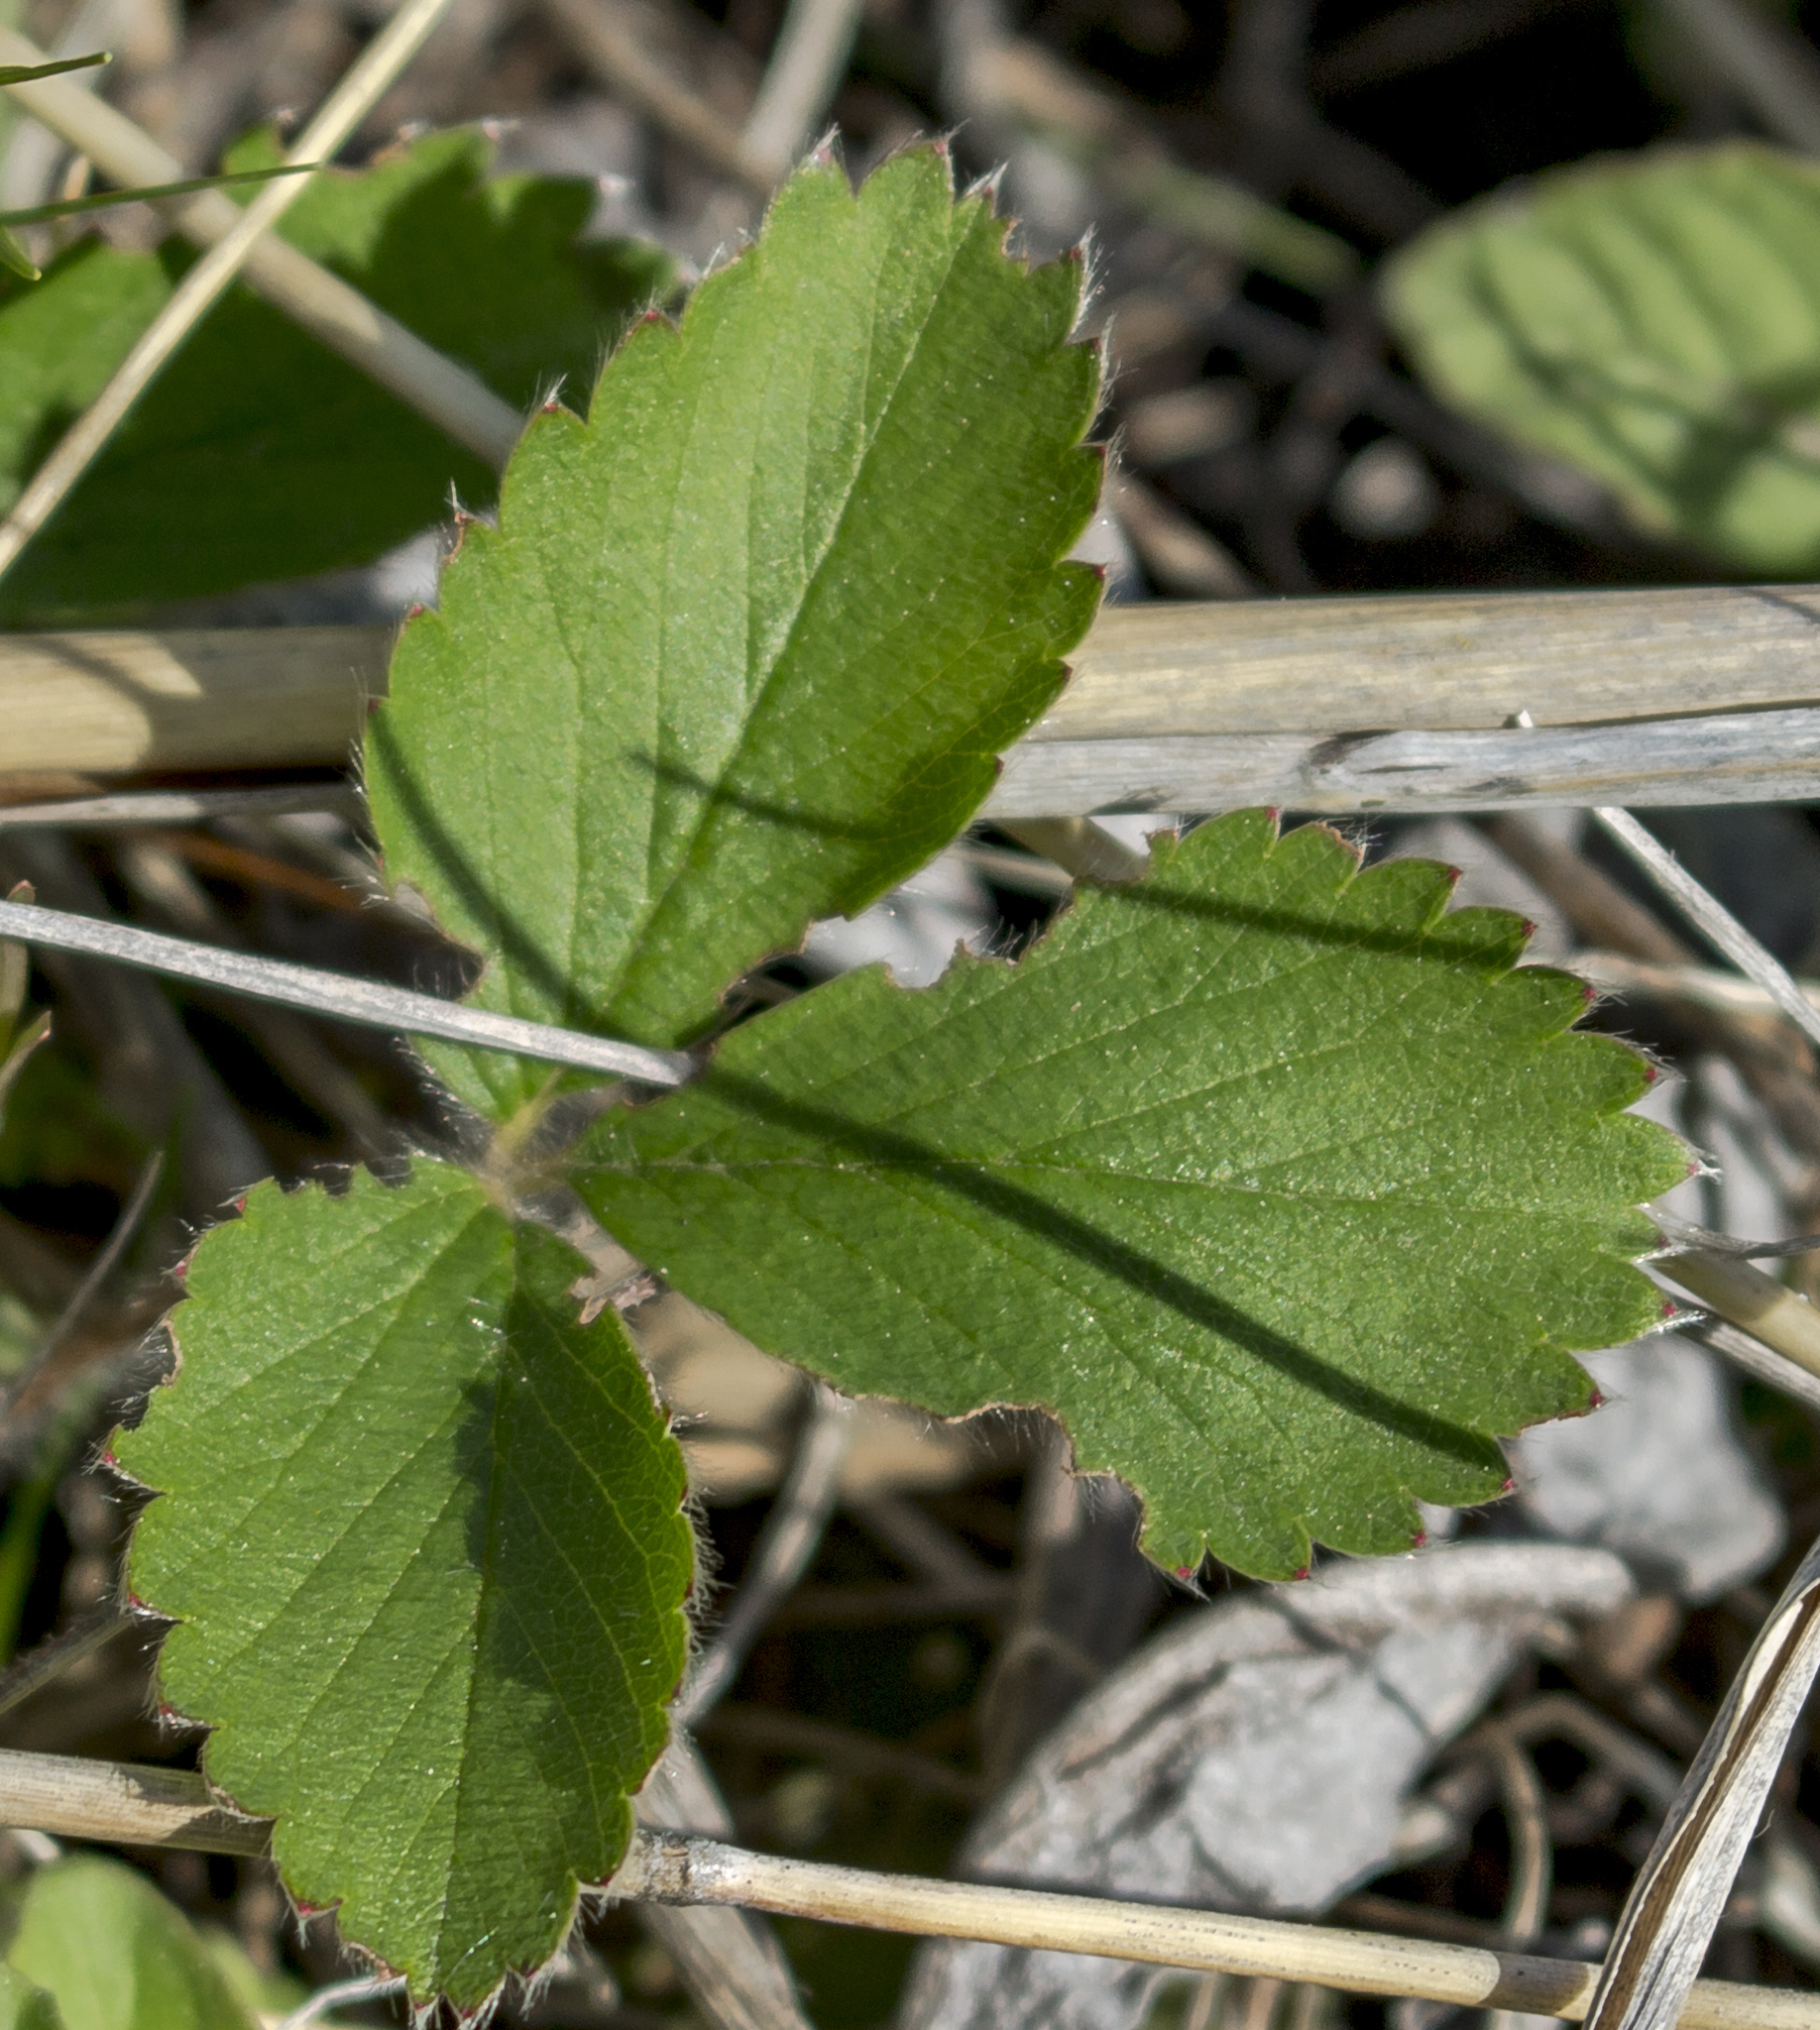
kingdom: Plantae
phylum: Tracheophyta
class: Magnoliopsida
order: Rosales
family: Rosaceae
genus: Fragaria
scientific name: Fragaria virginiana
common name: Thickleaved wild strawberry
